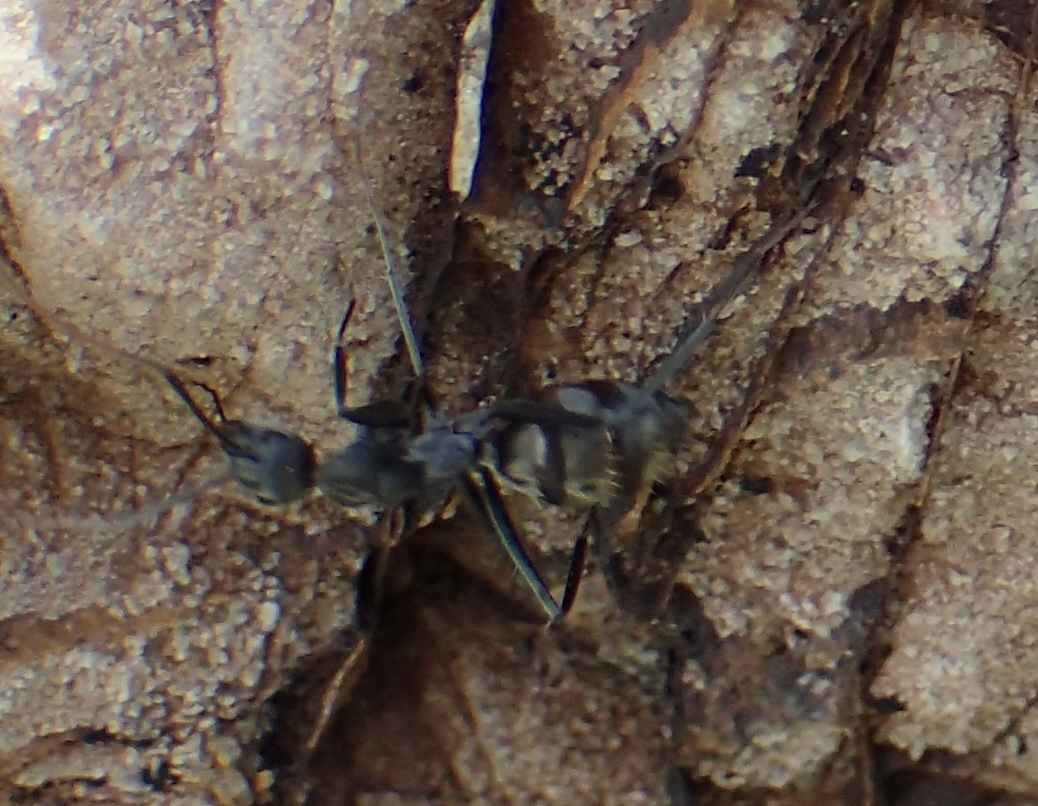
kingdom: Animalia
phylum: Arthropoda
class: Insecta
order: Hymenoptera
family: Formicidae
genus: Camponotus
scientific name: Camponotus cinctellus
